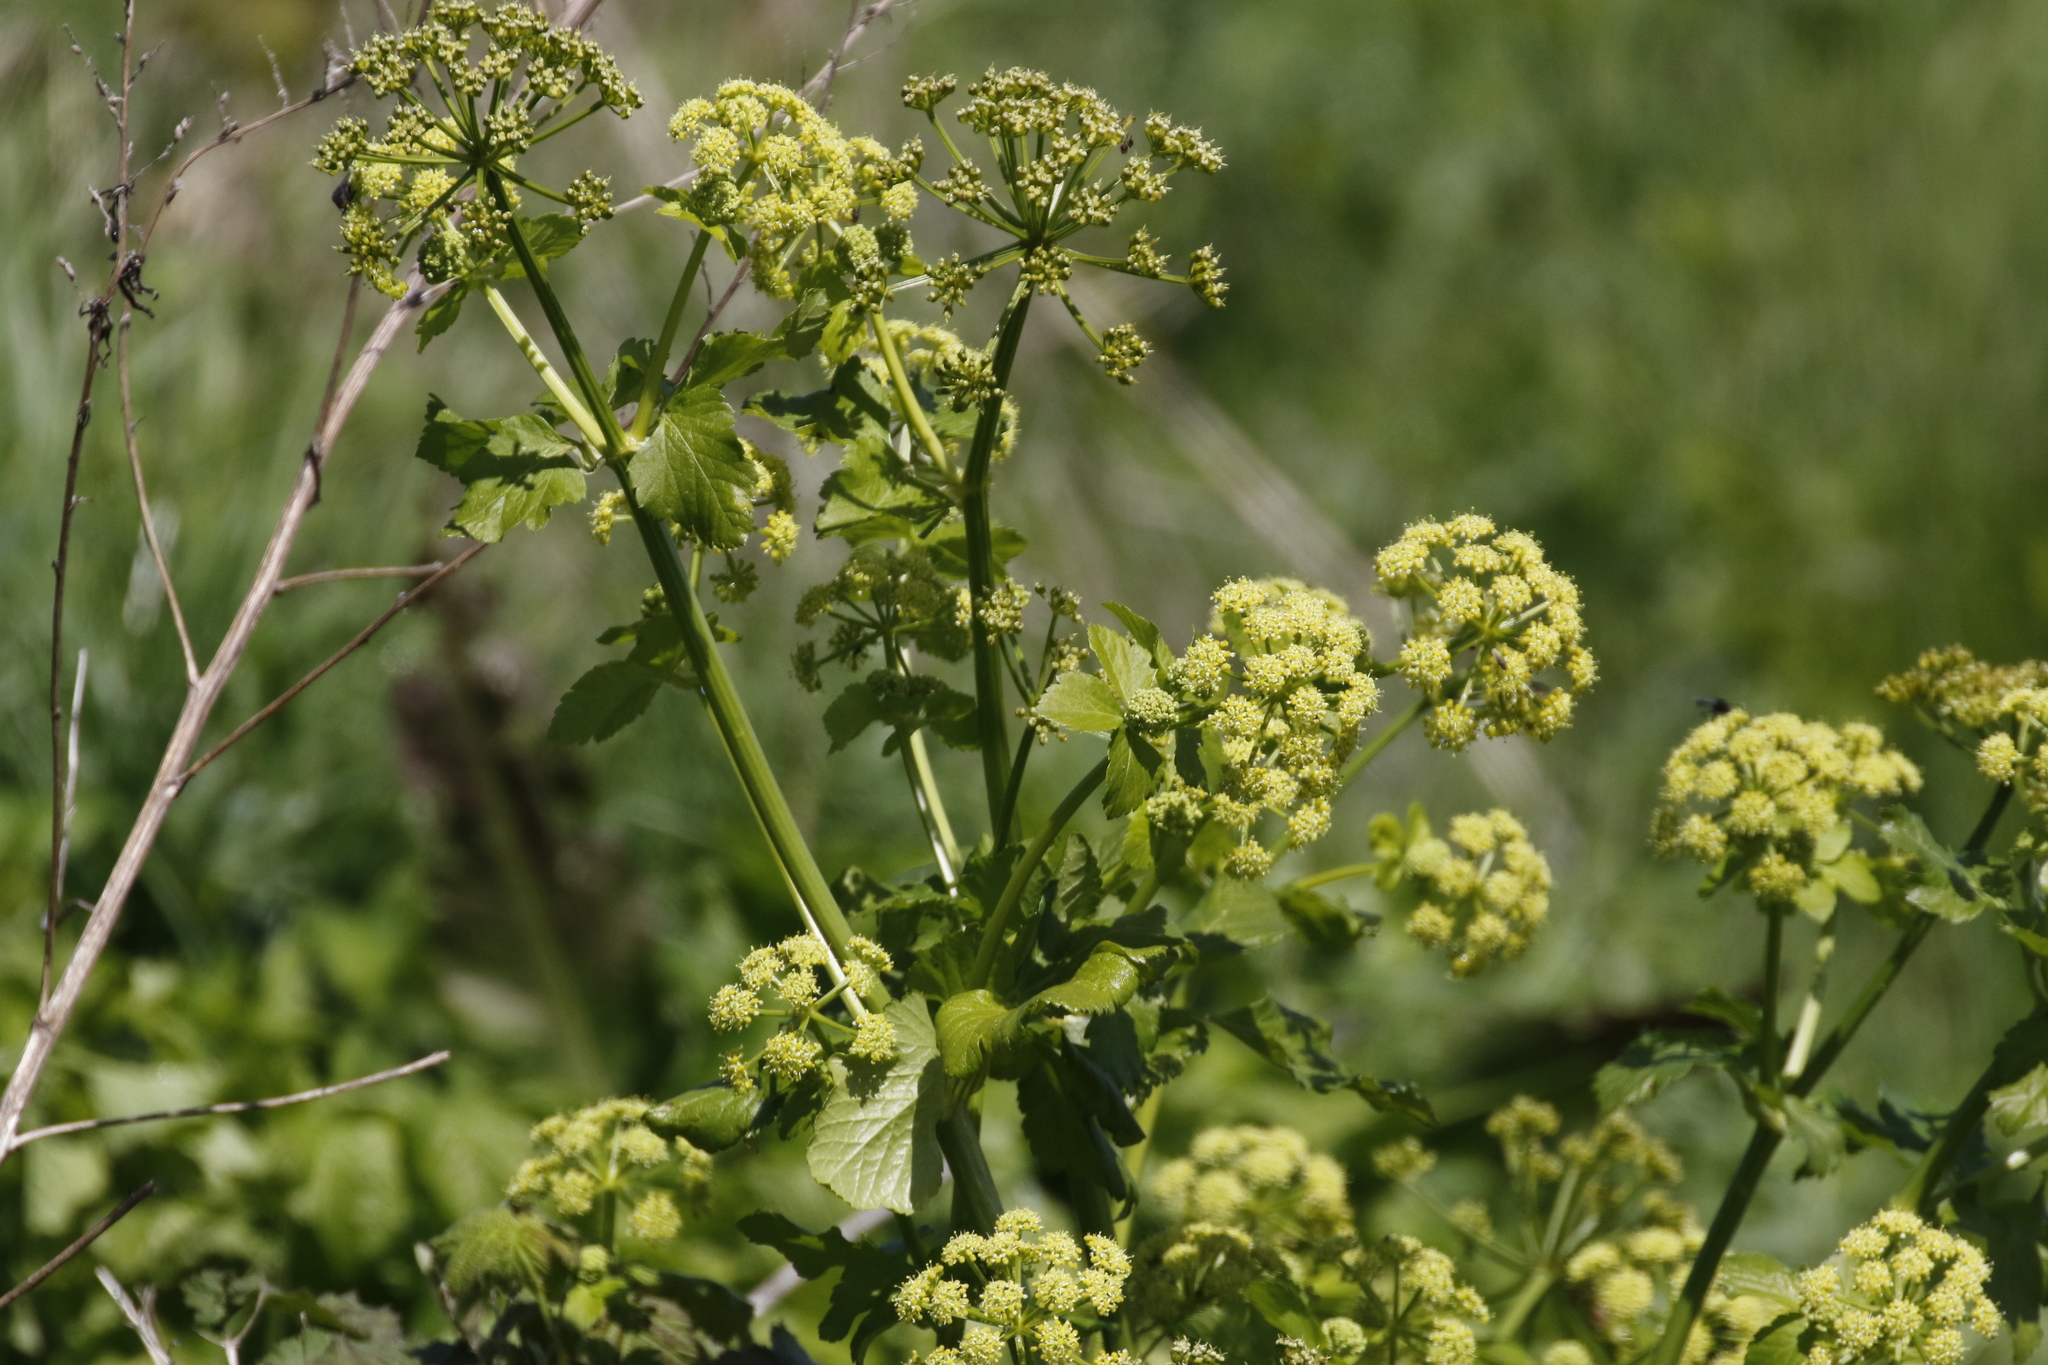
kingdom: Plantae
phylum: Tracheophyta
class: Magnoliopsida
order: Apiales
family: Apiaceae
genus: Smyrnium
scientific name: Smyrnium olusatrum
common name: Alexanders
